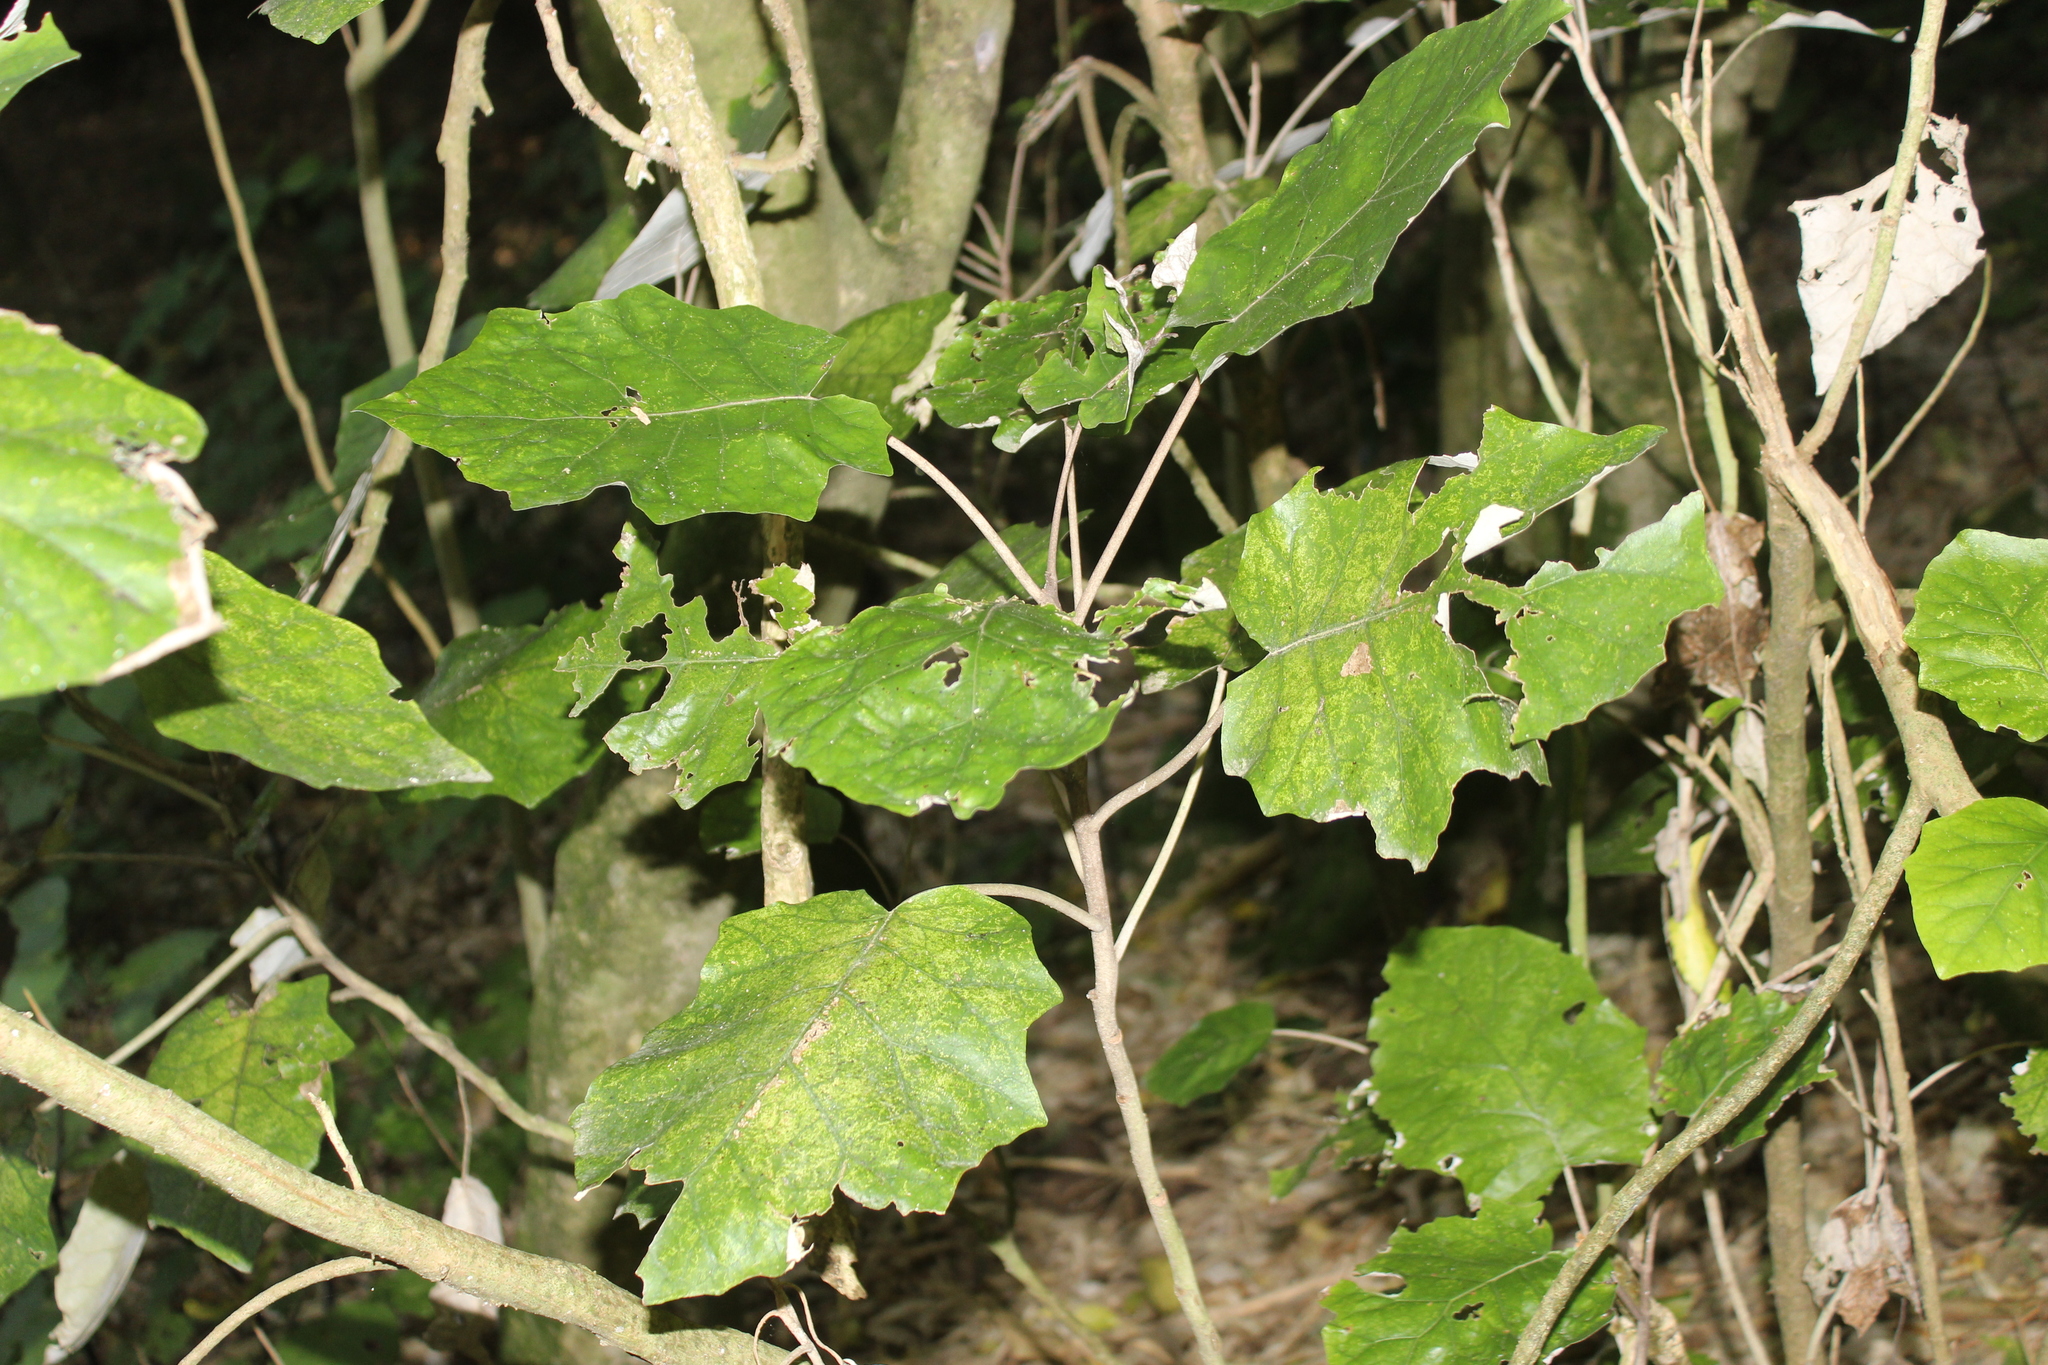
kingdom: Plantae
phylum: Tracheophyta
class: Magnoliopsida
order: Asterales
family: Asteraceae
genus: Brachyglottis
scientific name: Brachyglottis repanda
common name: Hedge ragwort
